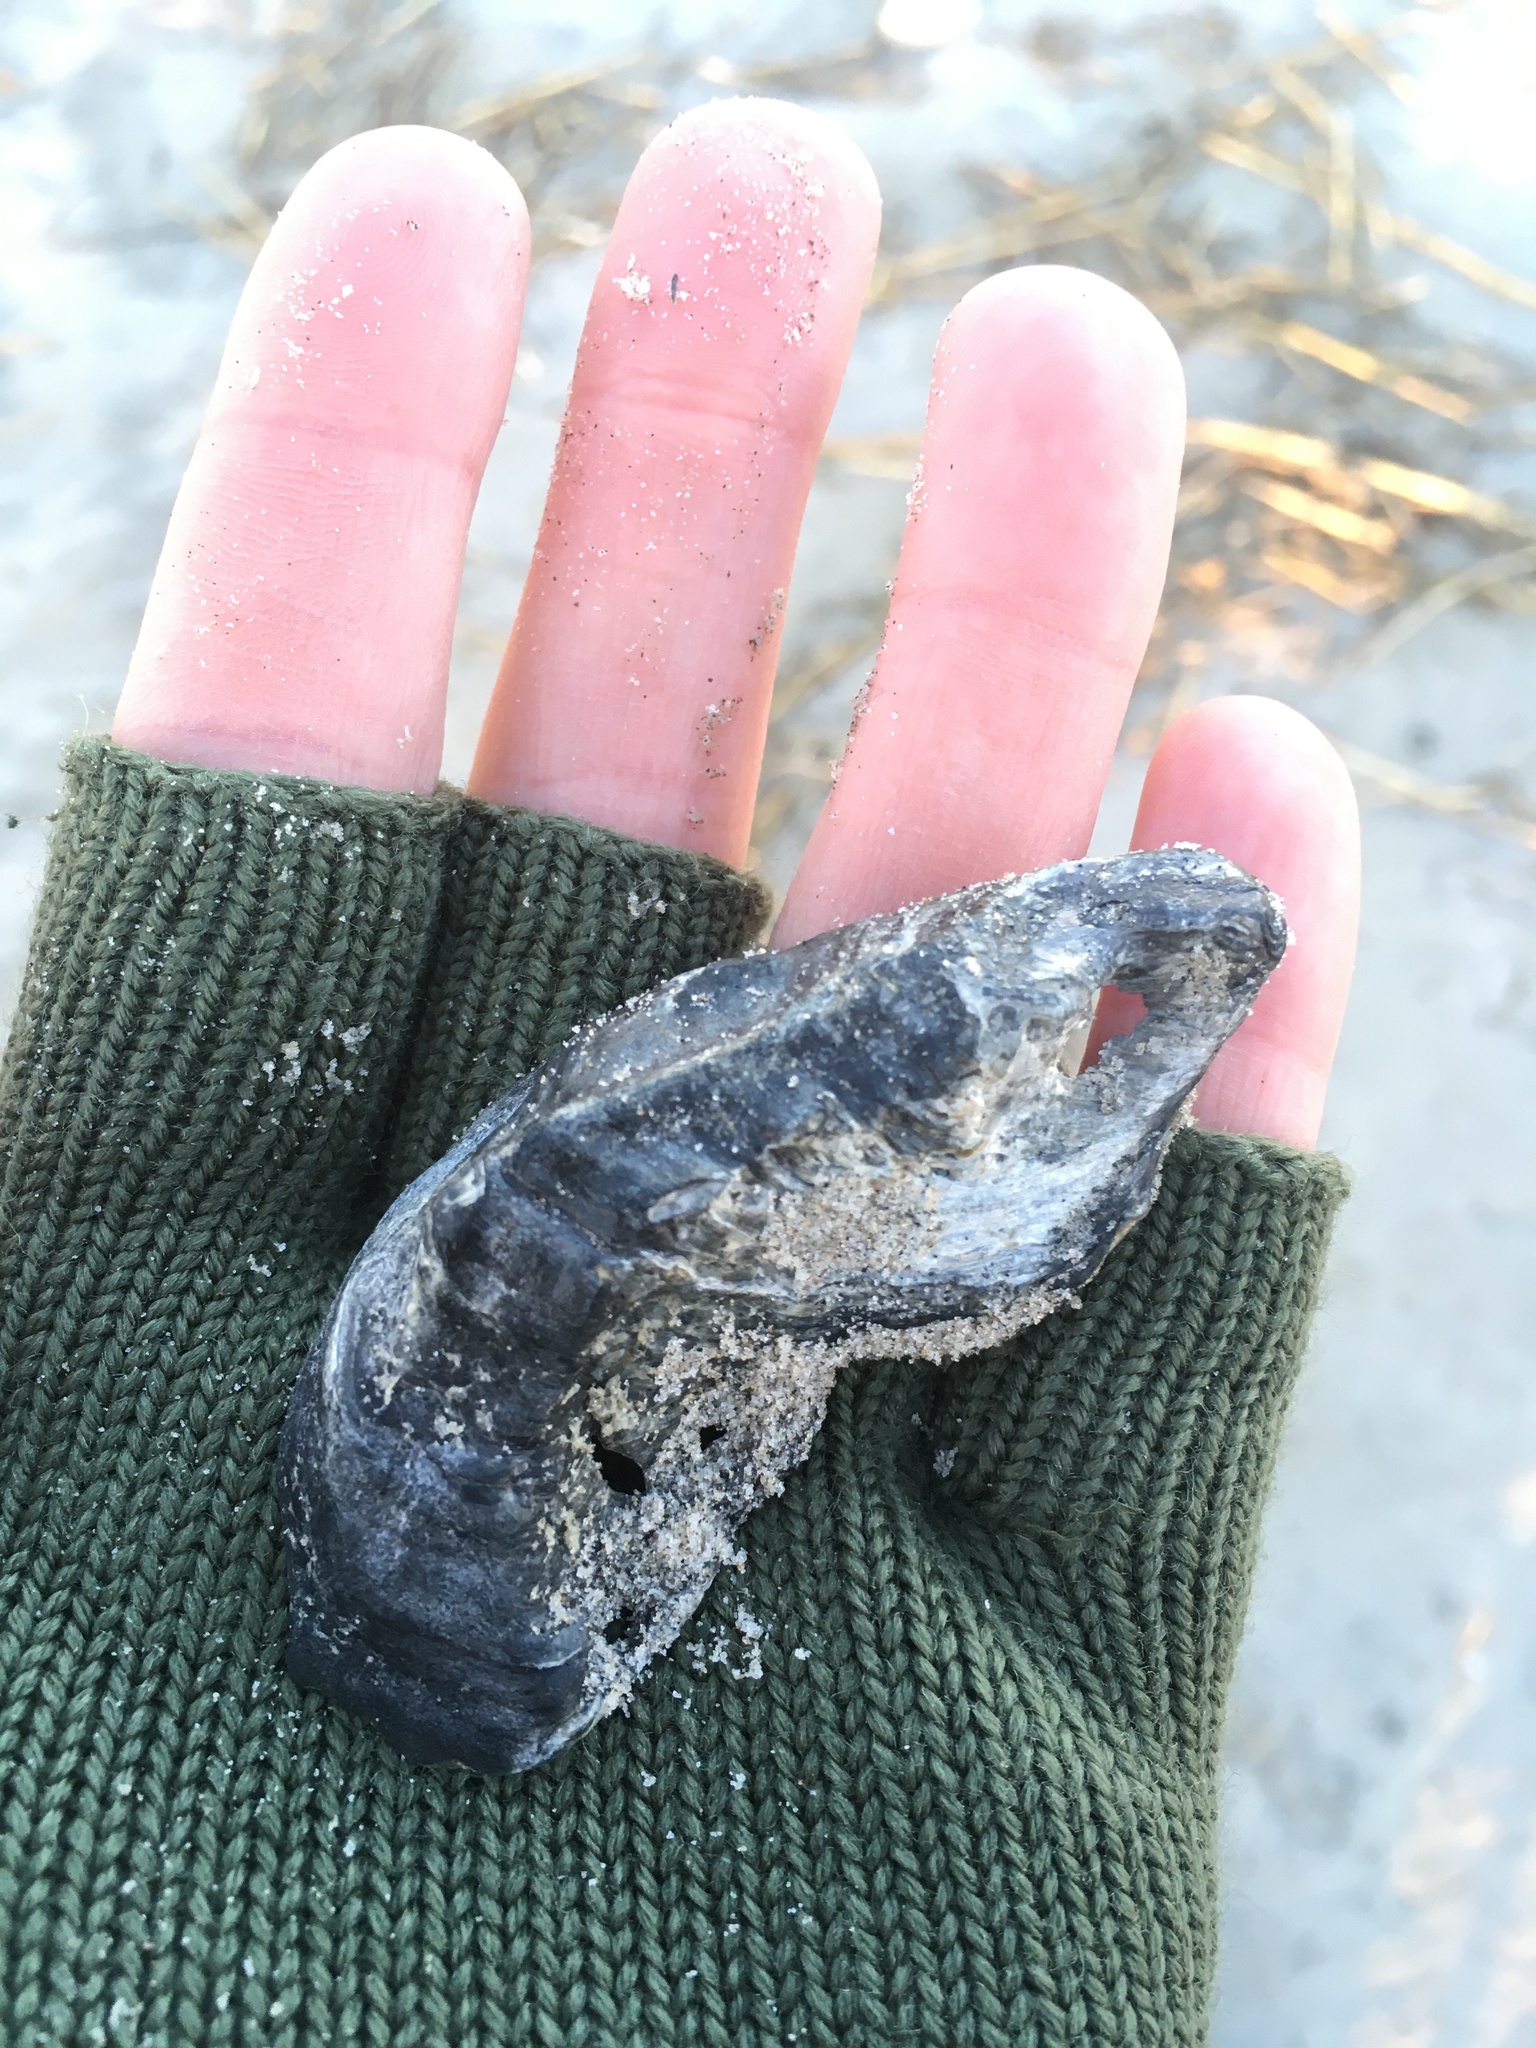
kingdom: Animalia
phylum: Mollusca
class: Bivalvia
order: Ostreida
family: Ostreidae
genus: Crassostrea
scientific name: Crassostrea virginica
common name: American oyster
